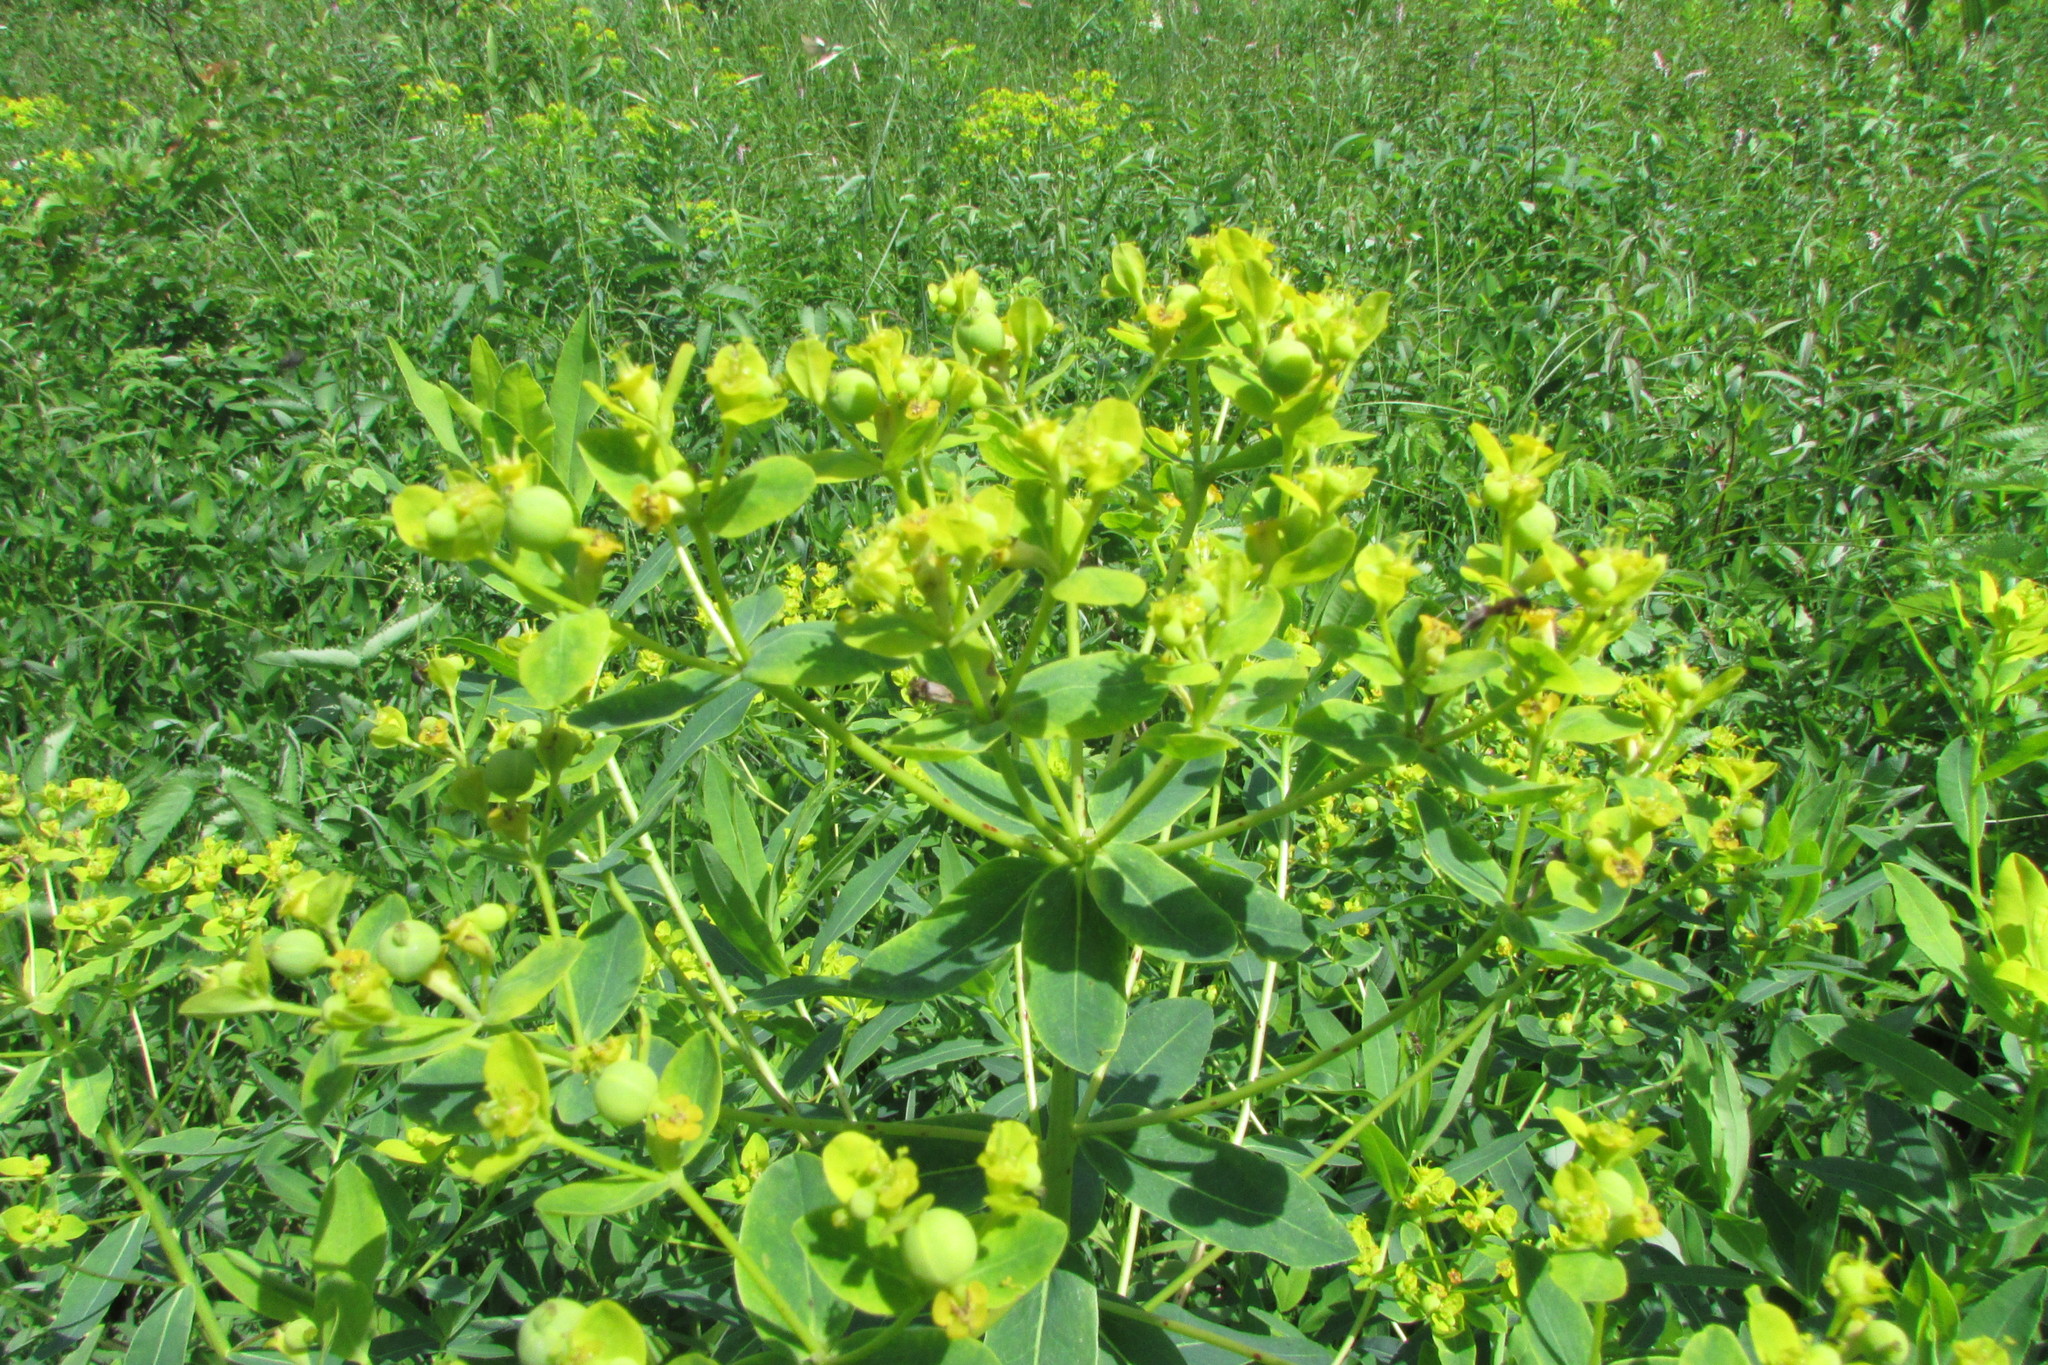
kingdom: Plantae
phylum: Tracheophyta
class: Magnoliopsida
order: Malpighiales
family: Euphorbiaceae
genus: Euphorbia
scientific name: Euphorbia semivillosa
